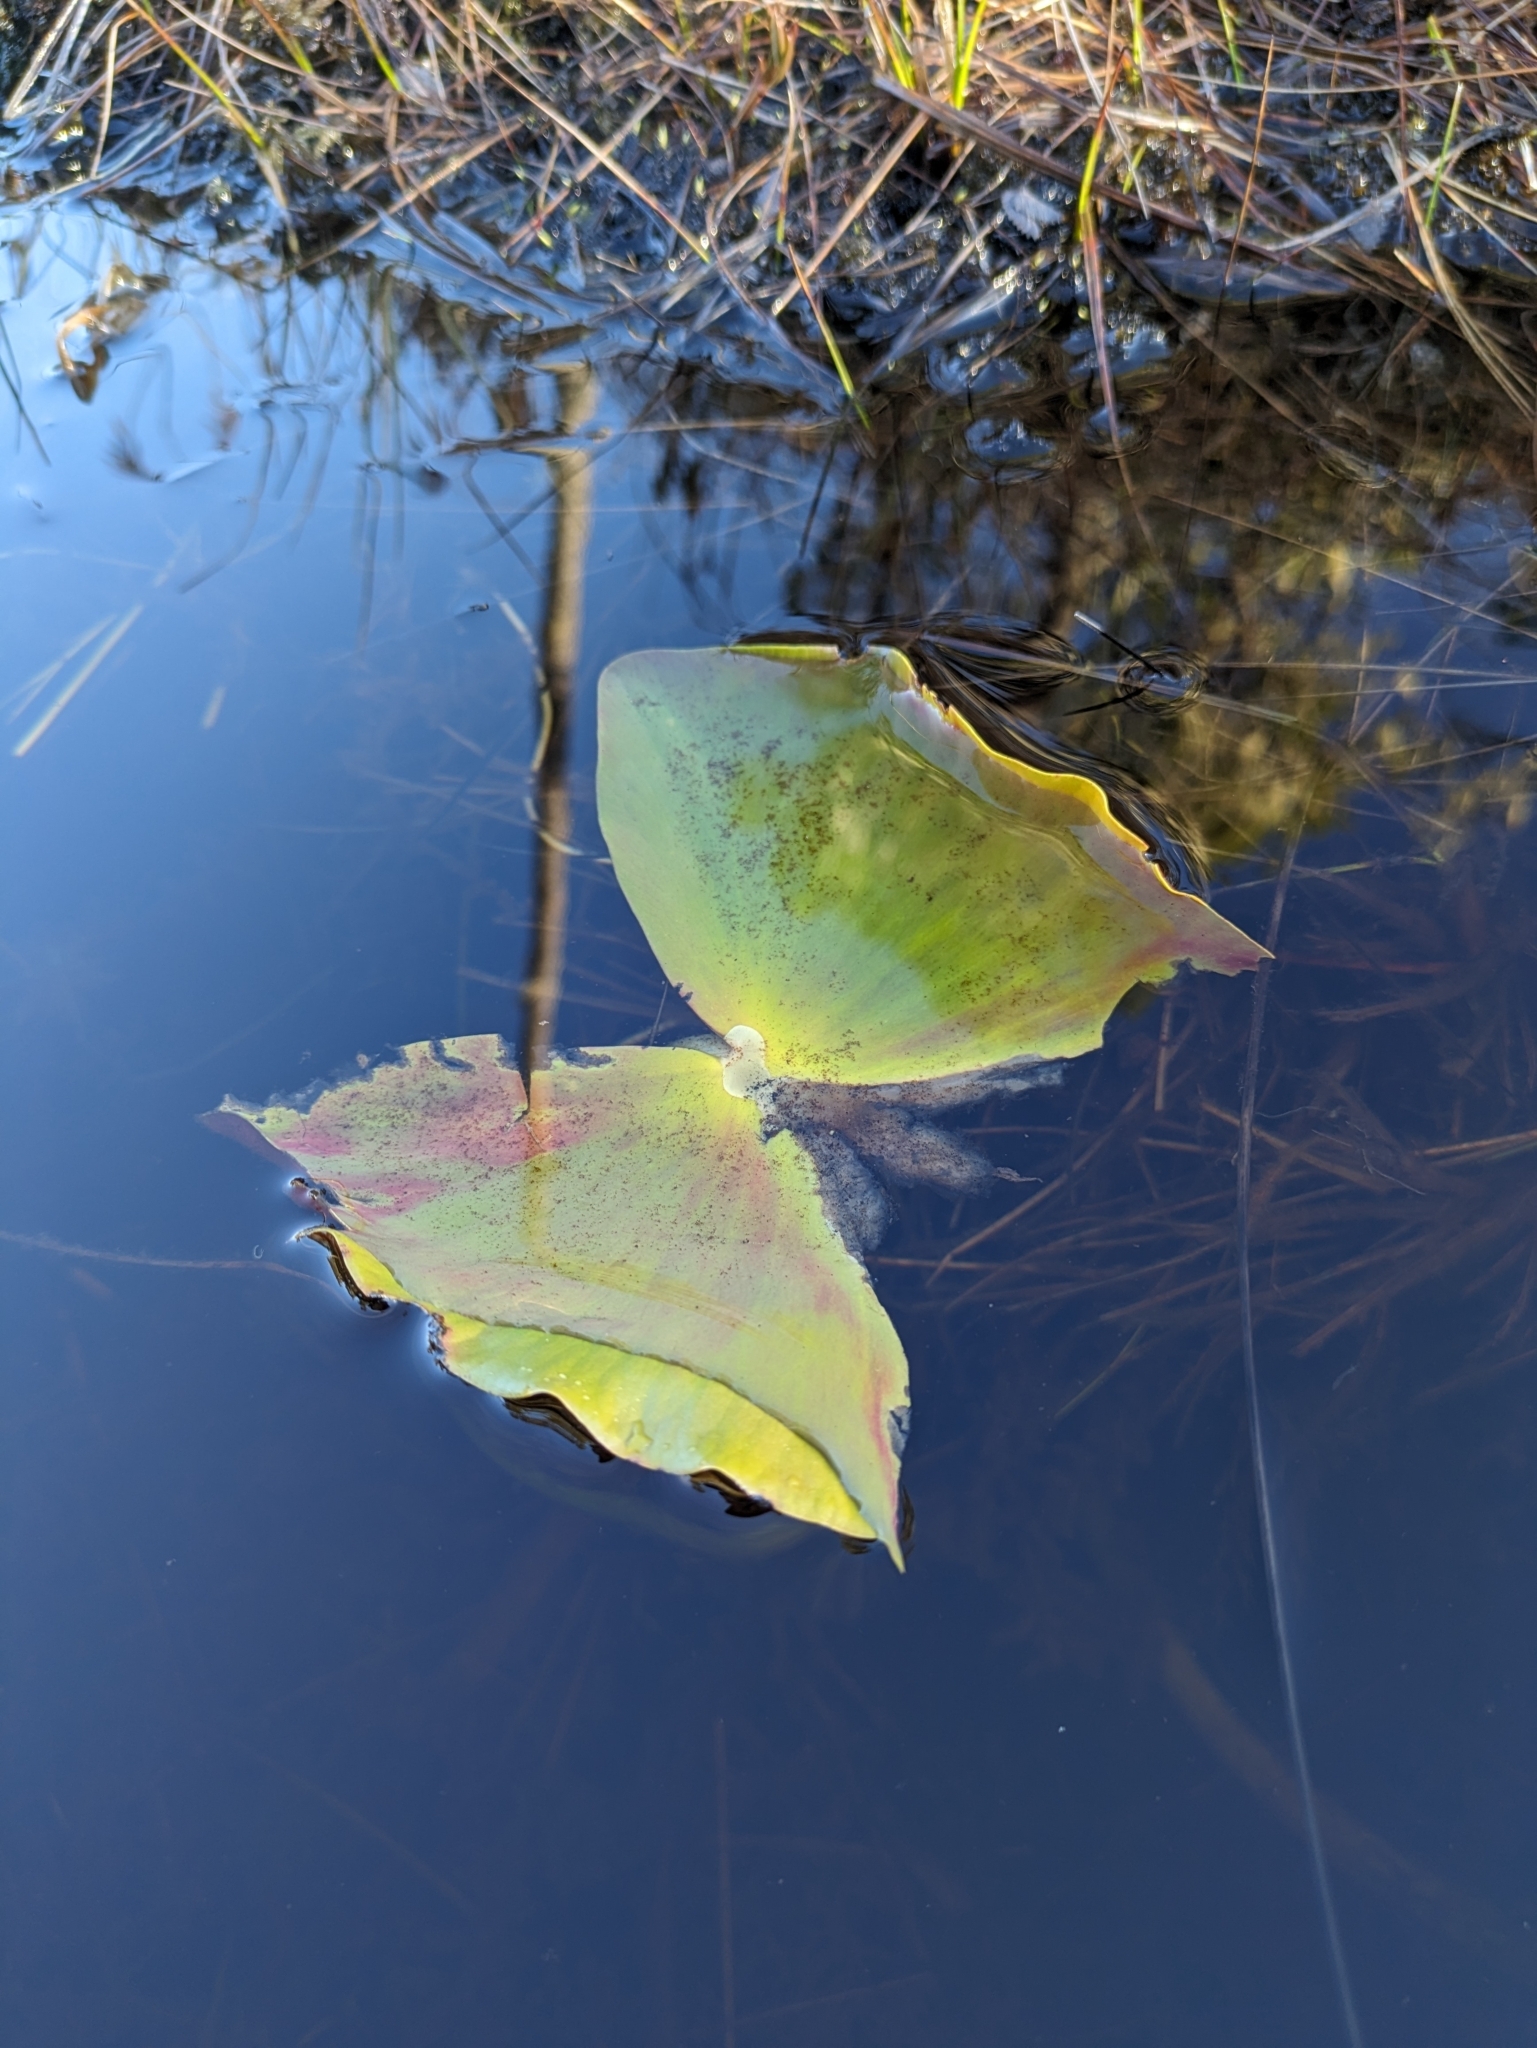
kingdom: Plantae
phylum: Tracheophyta
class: Magnoliopsida
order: Nymphaeales
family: Nymphaeaceae
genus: Nuphar
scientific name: Nuphar polysepala
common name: Rocky mountain cow-lily
